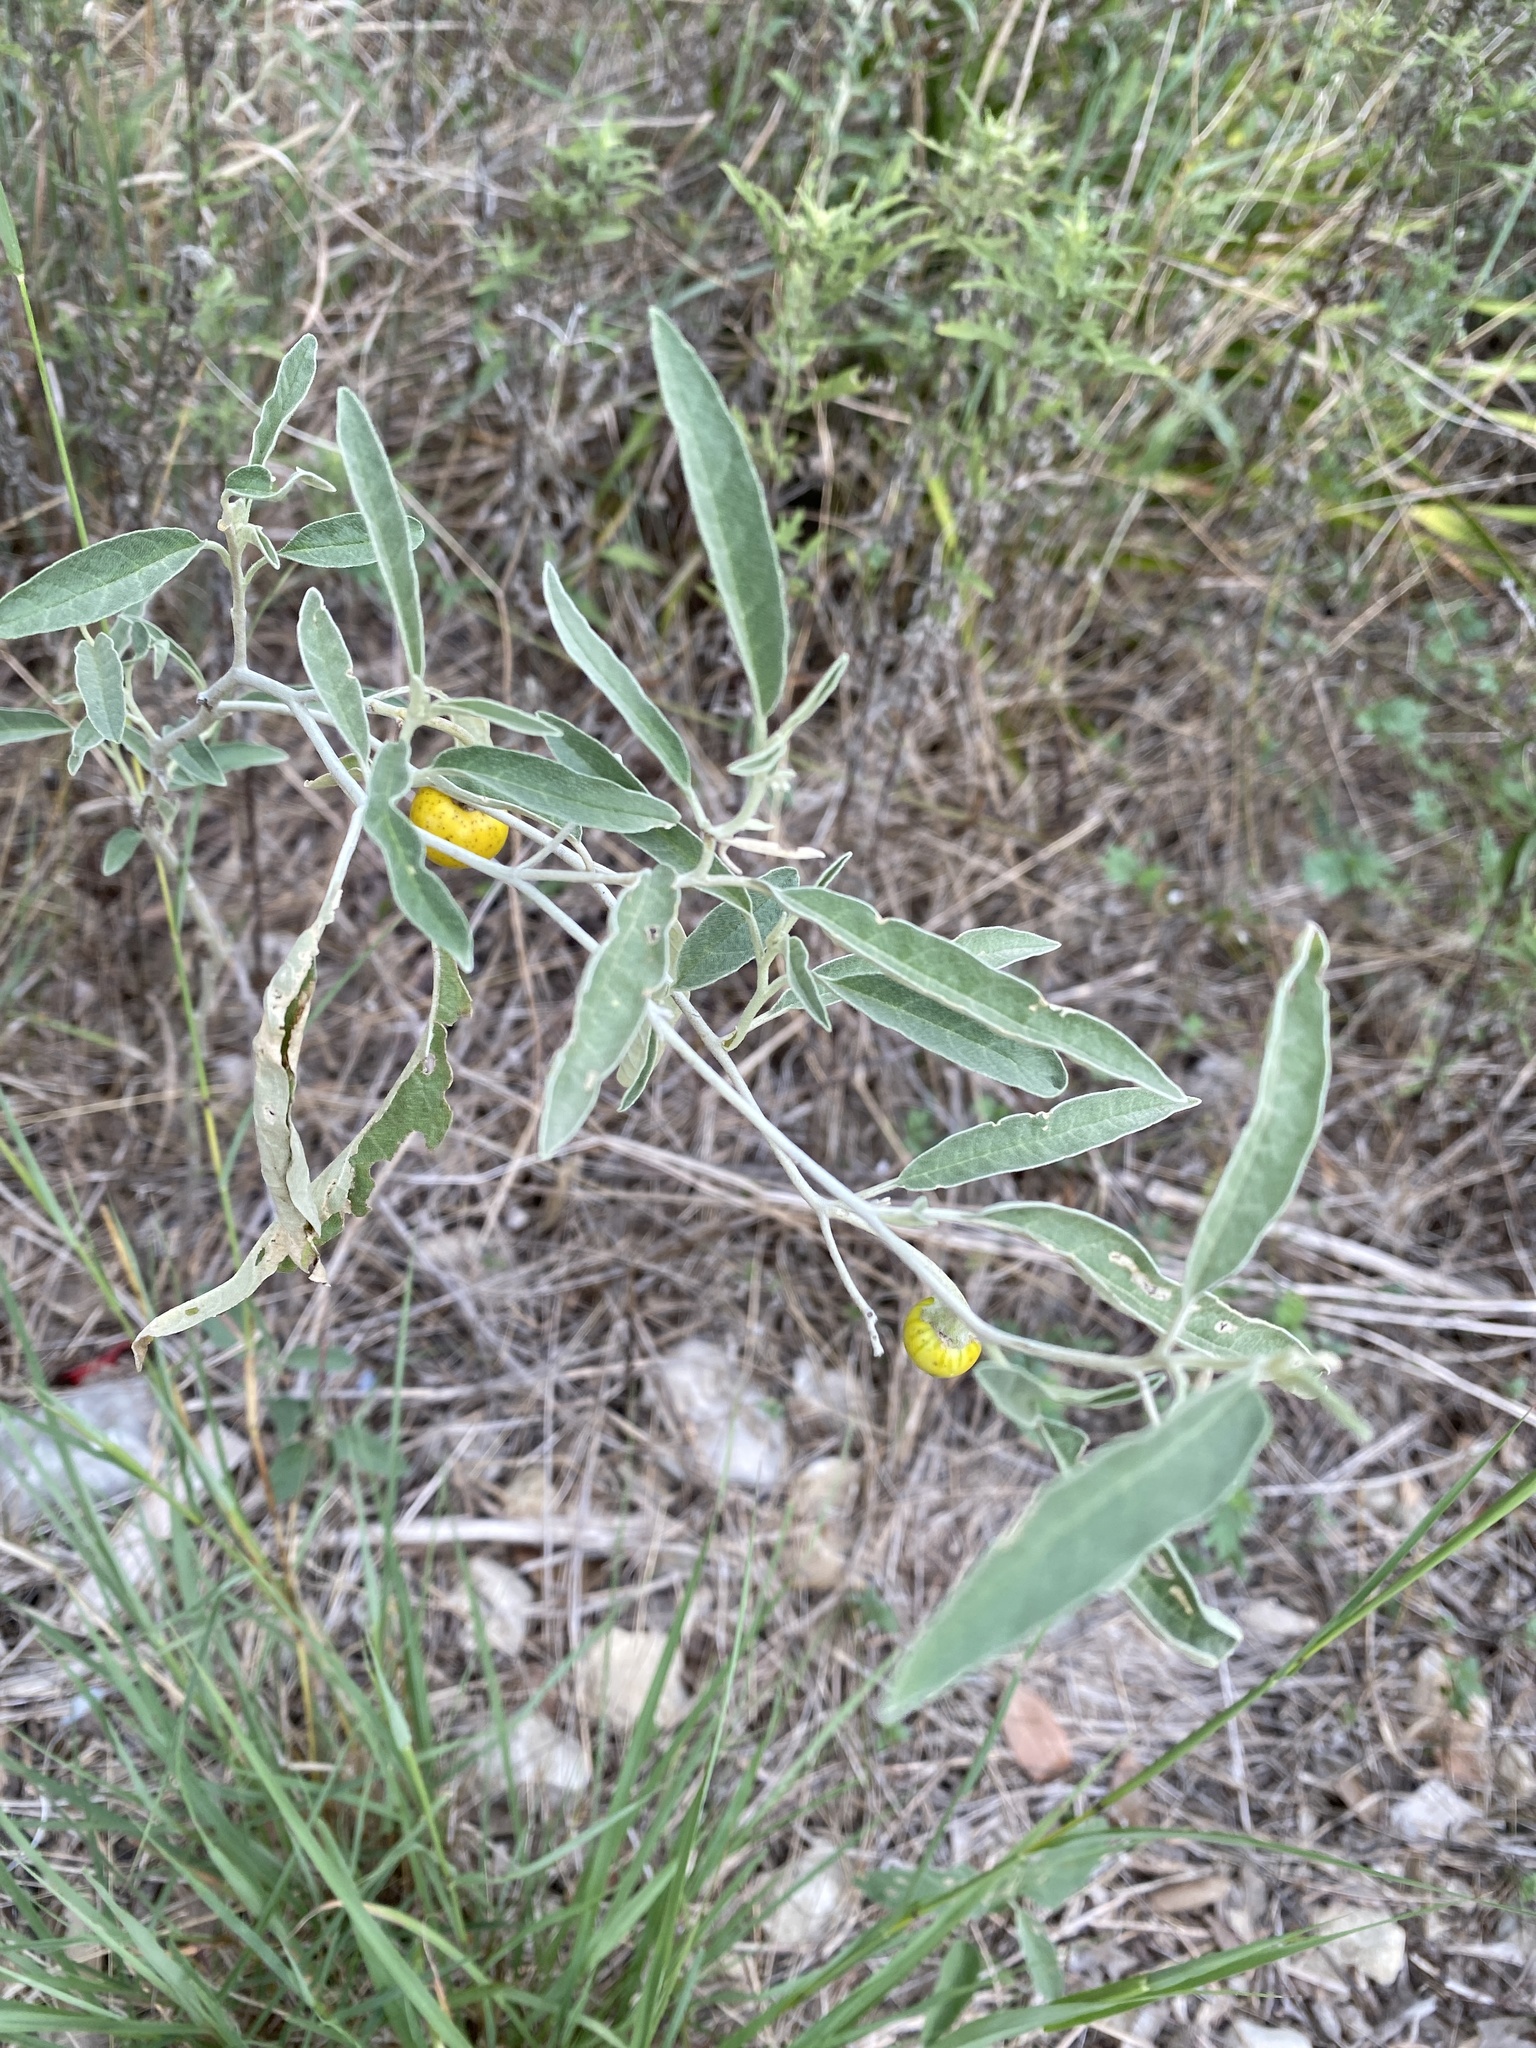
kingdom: Plantae
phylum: Tracheophyta
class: Magnoliopsida
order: Solanales
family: Solanaceae
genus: Solanum
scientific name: Solanum elaeagnifolium
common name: Silverleaf nightshade
